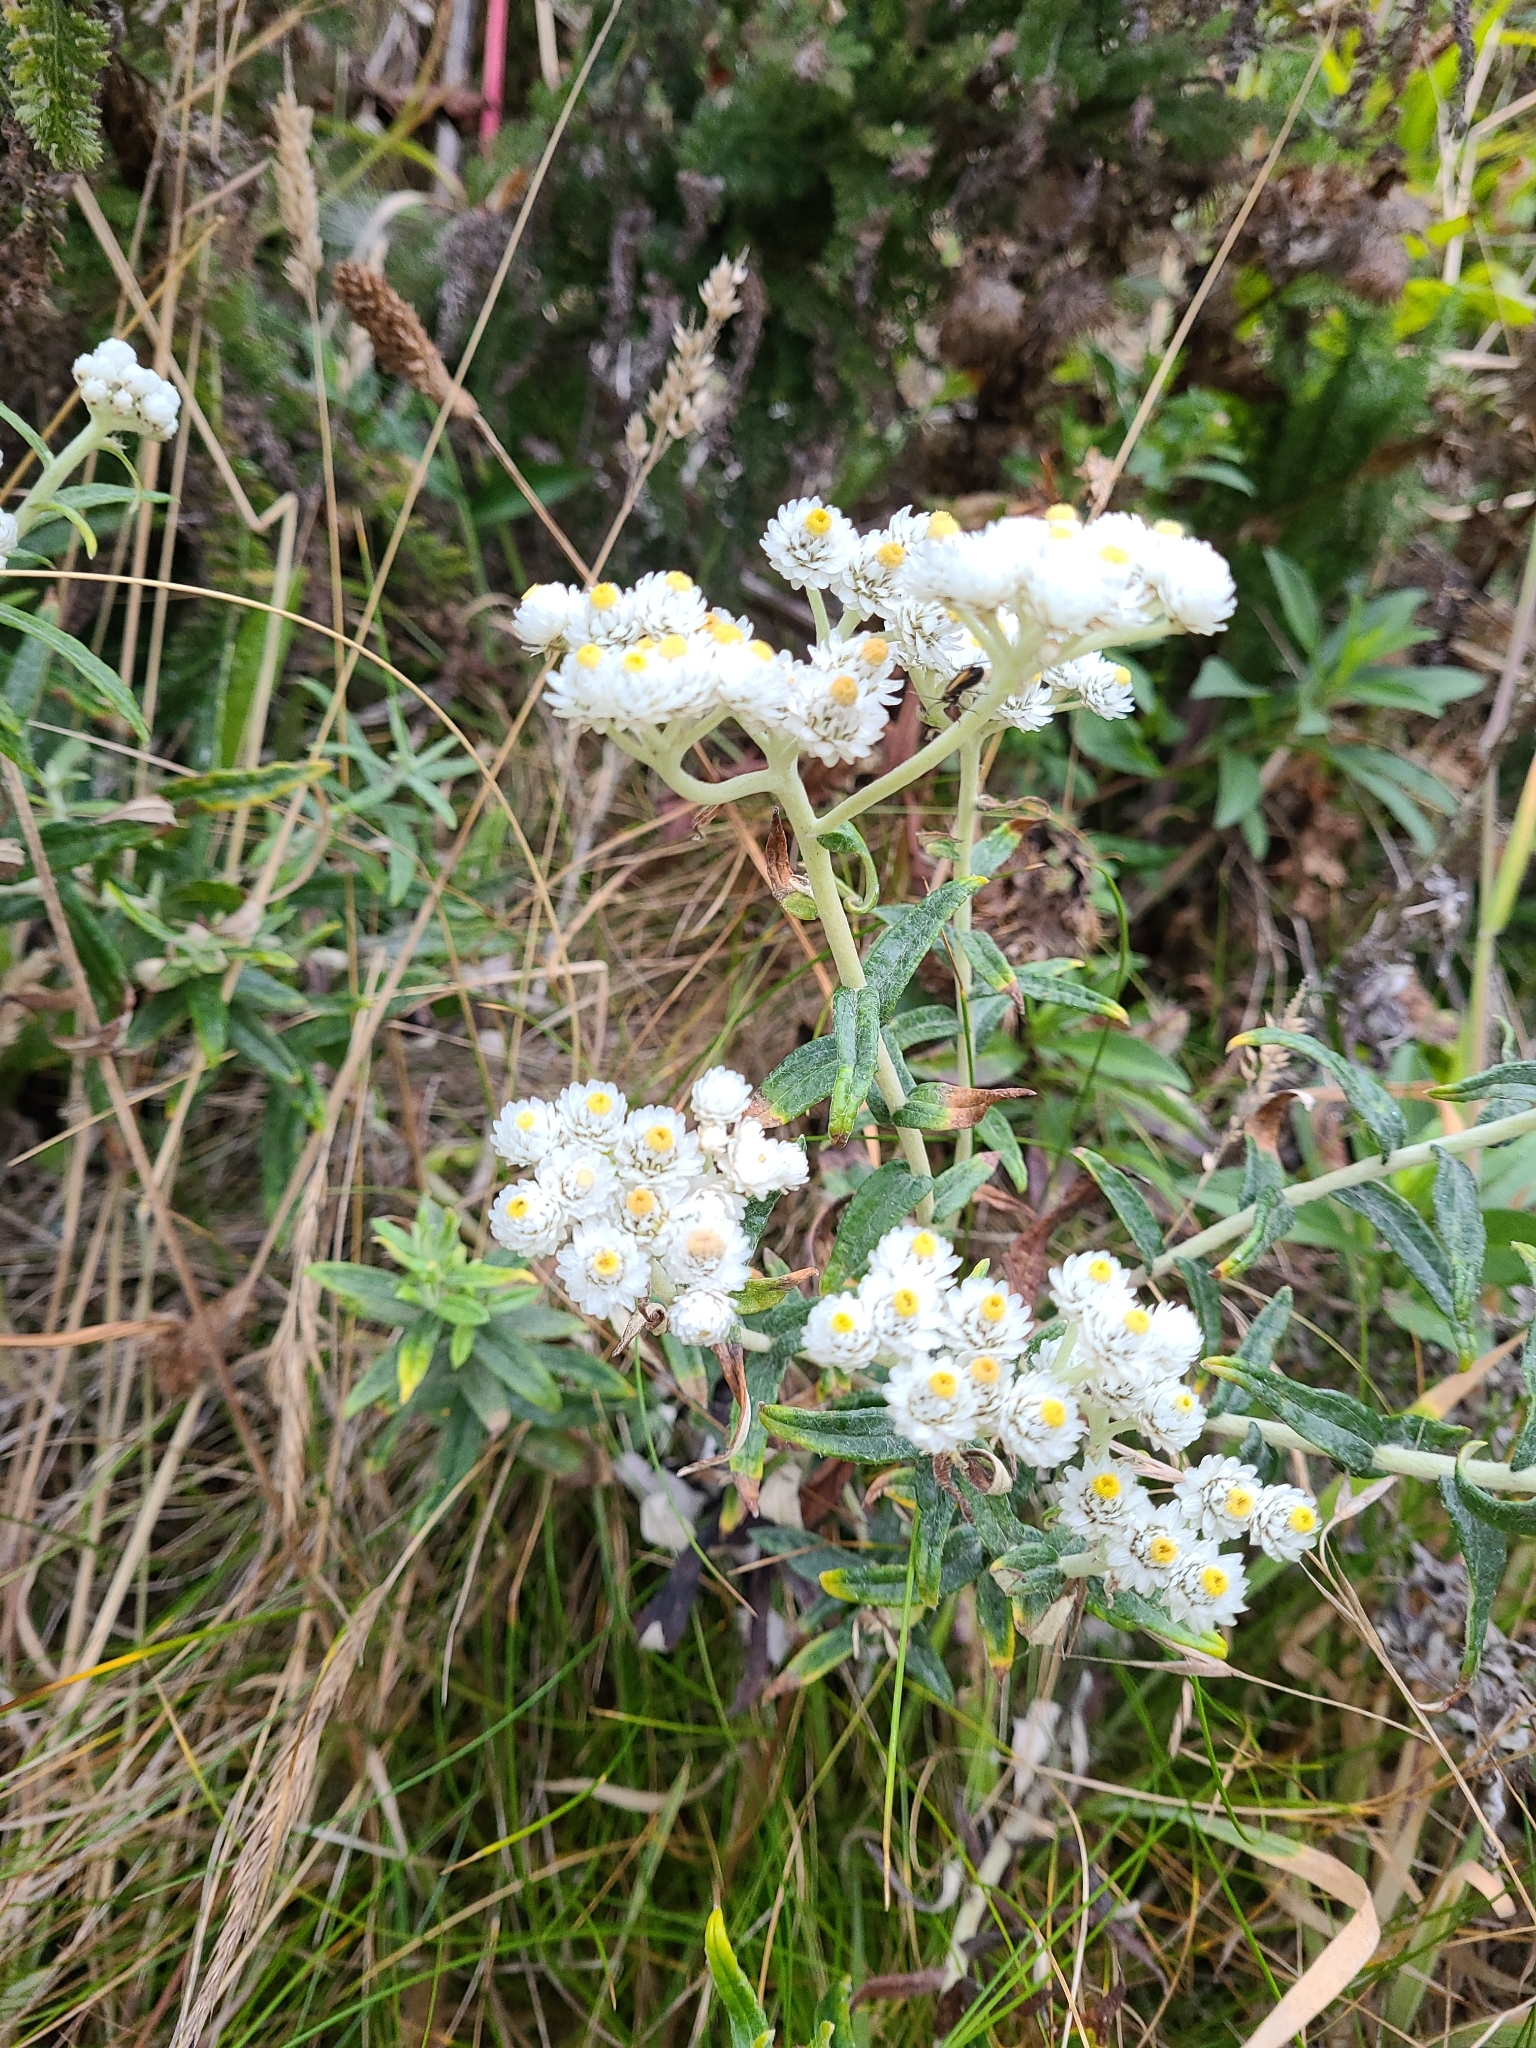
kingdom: Plantae
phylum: Tracheophyta
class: Magnoliopsida
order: Asterales
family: Asteraceae
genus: Anaphalis
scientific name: Anaphalis margaritacea
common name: Pearly everlasting
